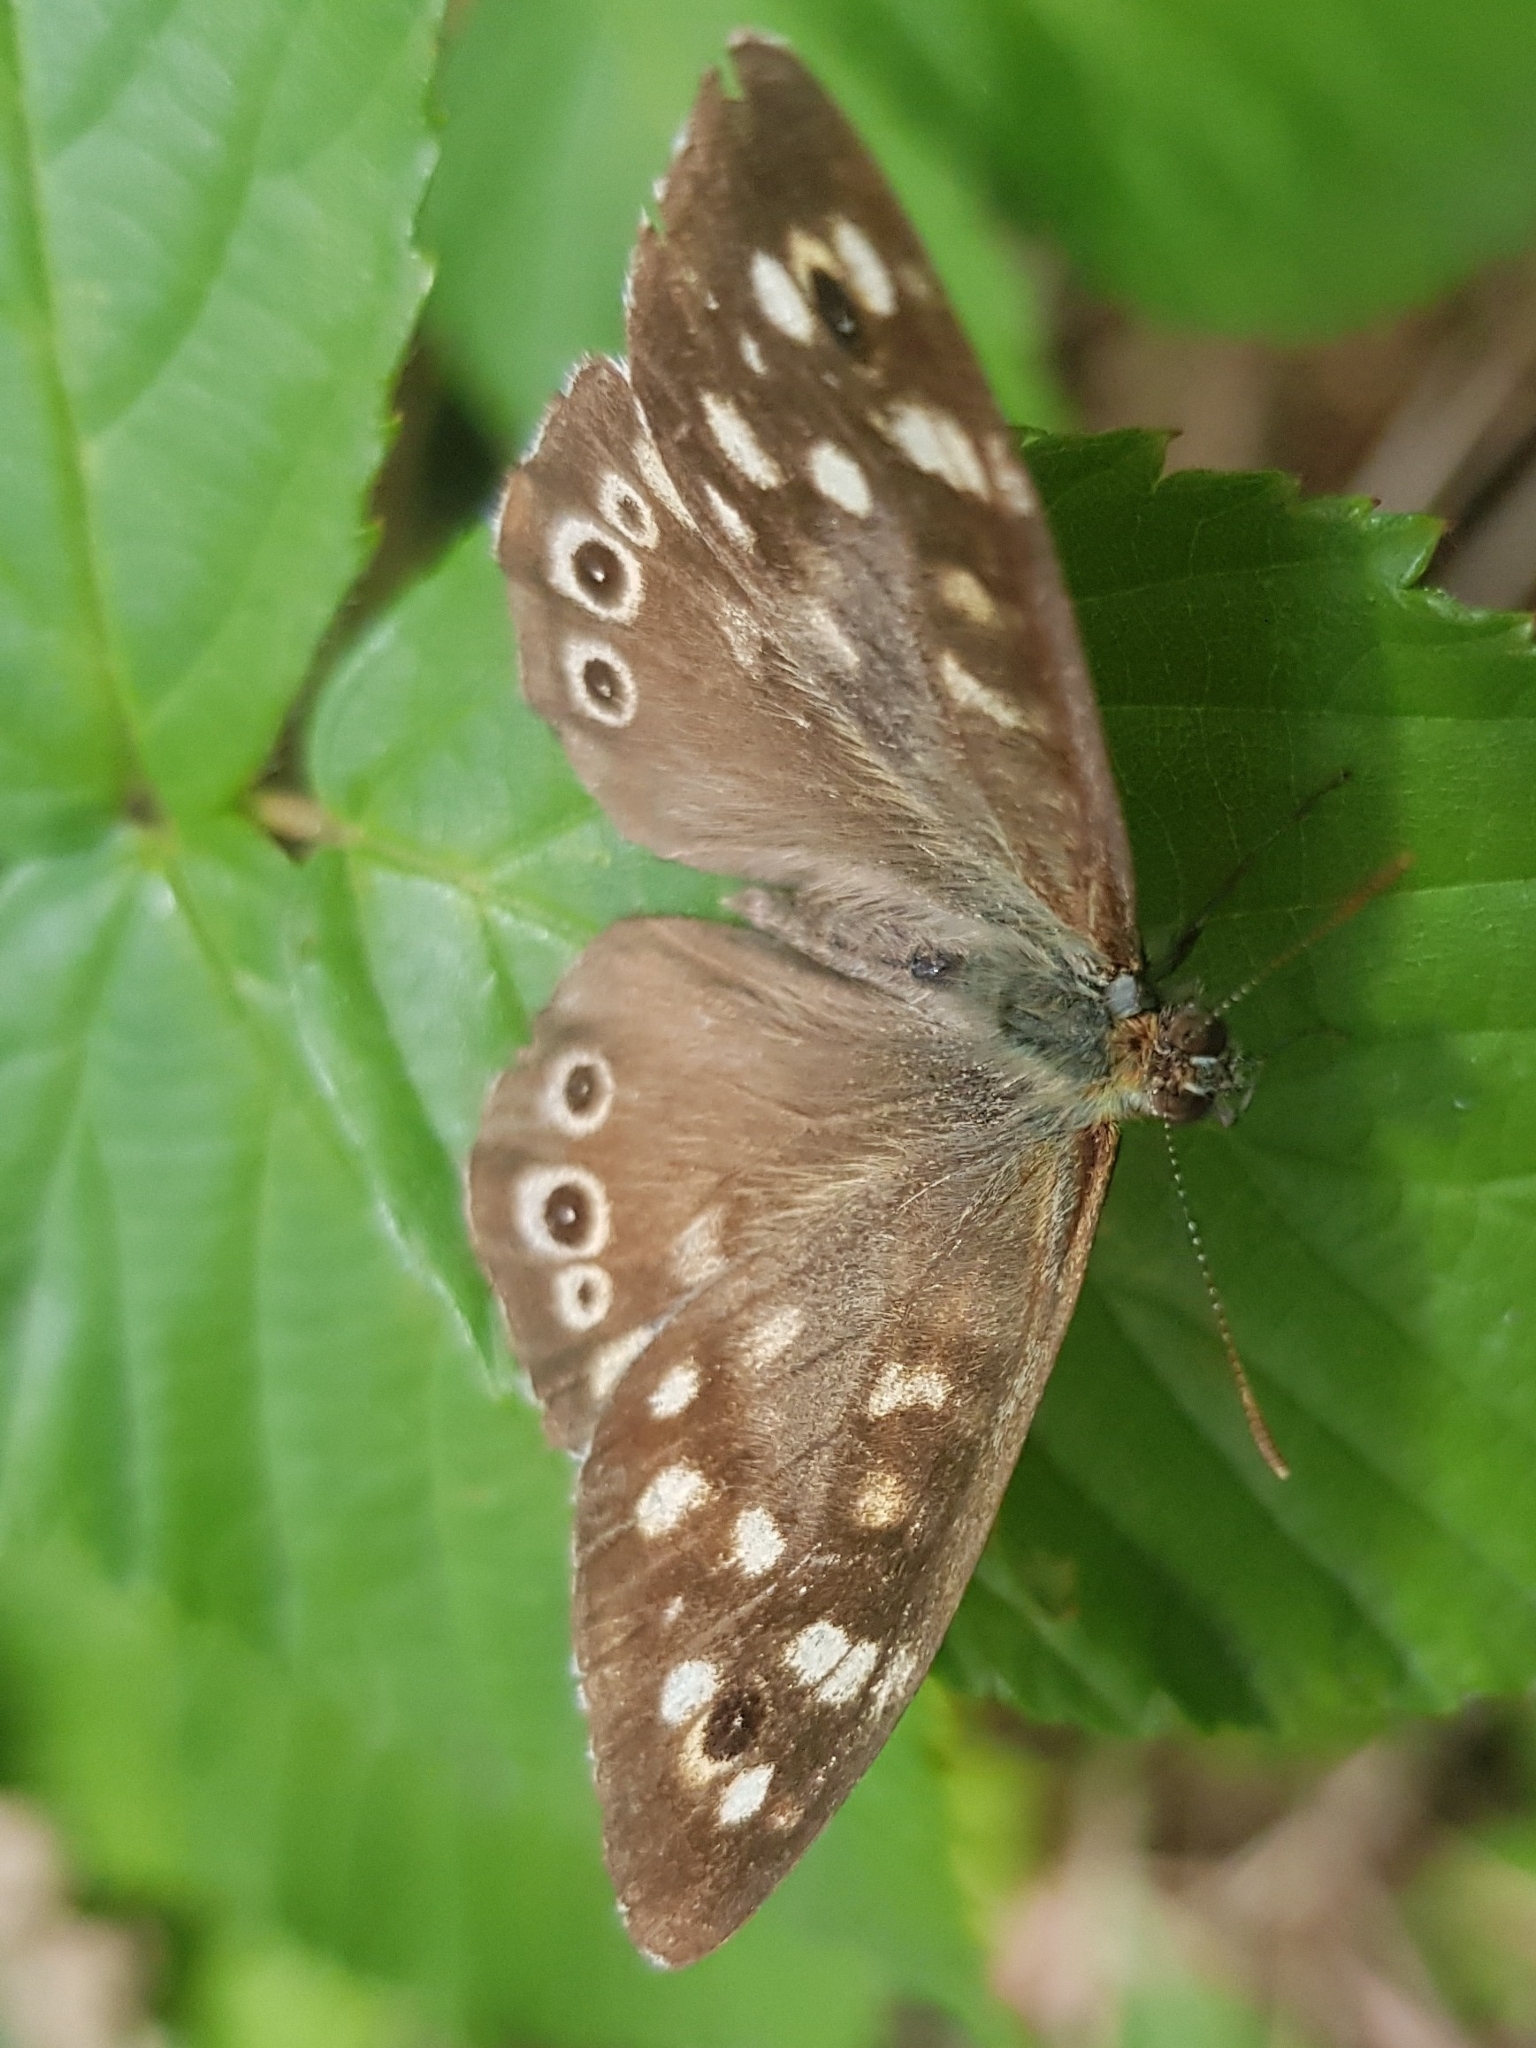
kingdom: Animalia
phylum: Arthropoda
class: Insecta
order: Lepidoptera
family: Nymphalidae
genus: Pararge
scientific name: Pararge aegeria
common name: Speckled wood
